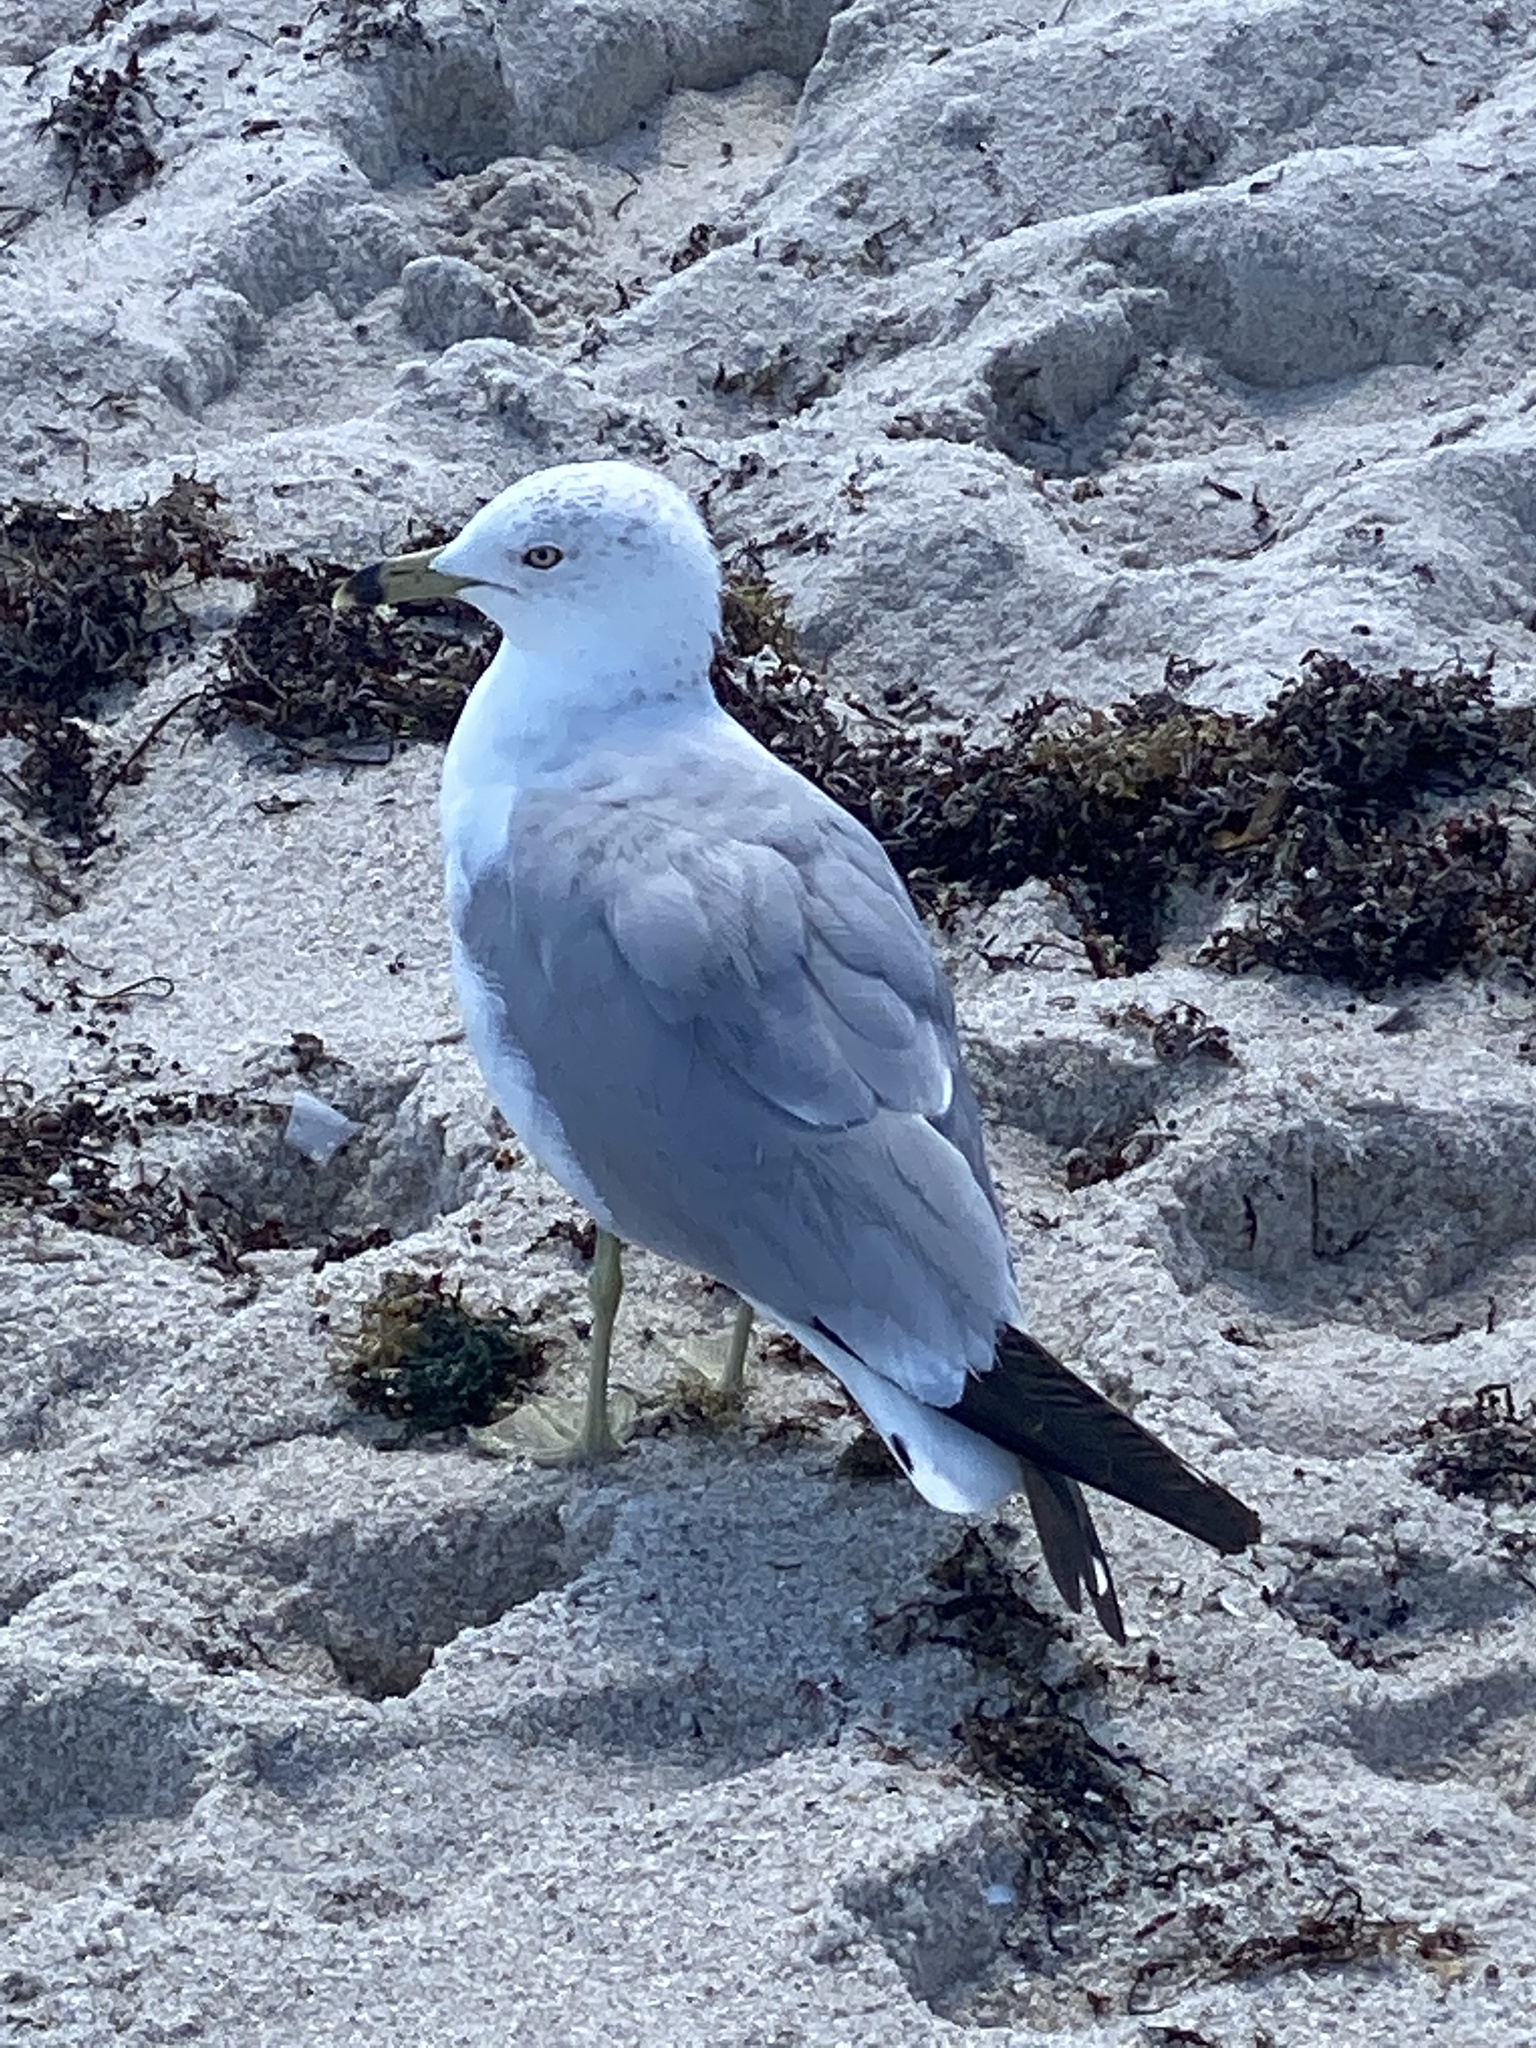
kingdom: Animalia
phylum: Chordata
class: Aves
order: Charadriiformes
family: Laridae
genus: Larus
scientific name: Larus delawarensis
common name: Ring-billed gull
